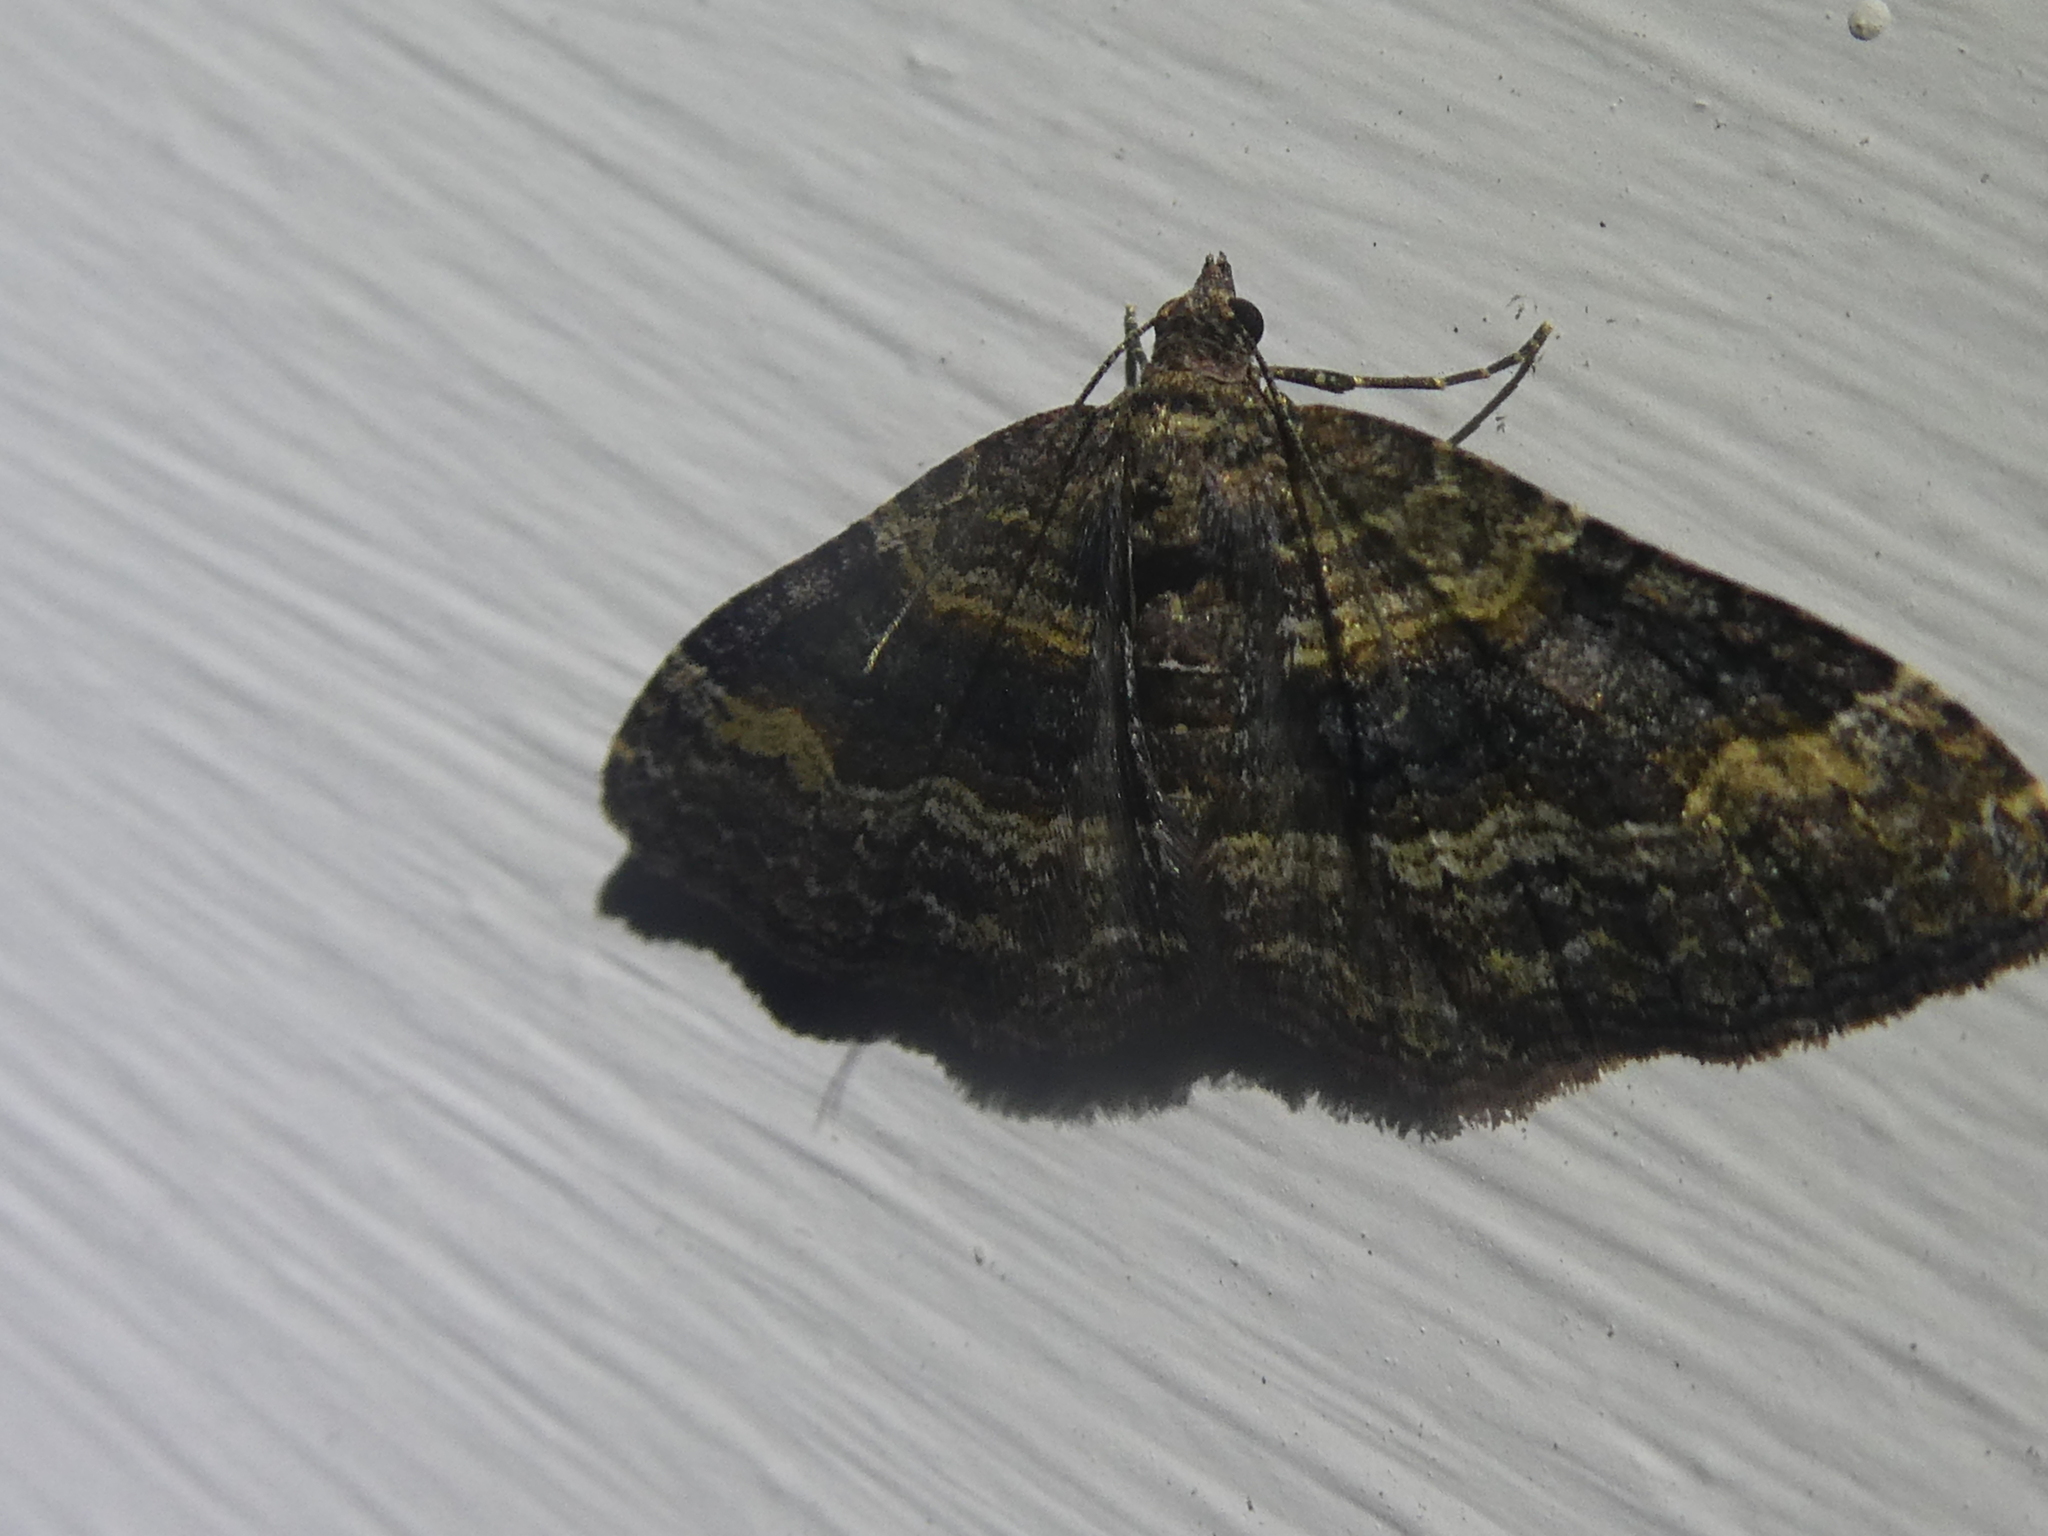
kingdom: Animalia
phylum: Arthropoda
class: Insecta
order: Lepidoptera
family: Geometridae
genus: Epyaxa
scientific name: Epyaxa lucidata
